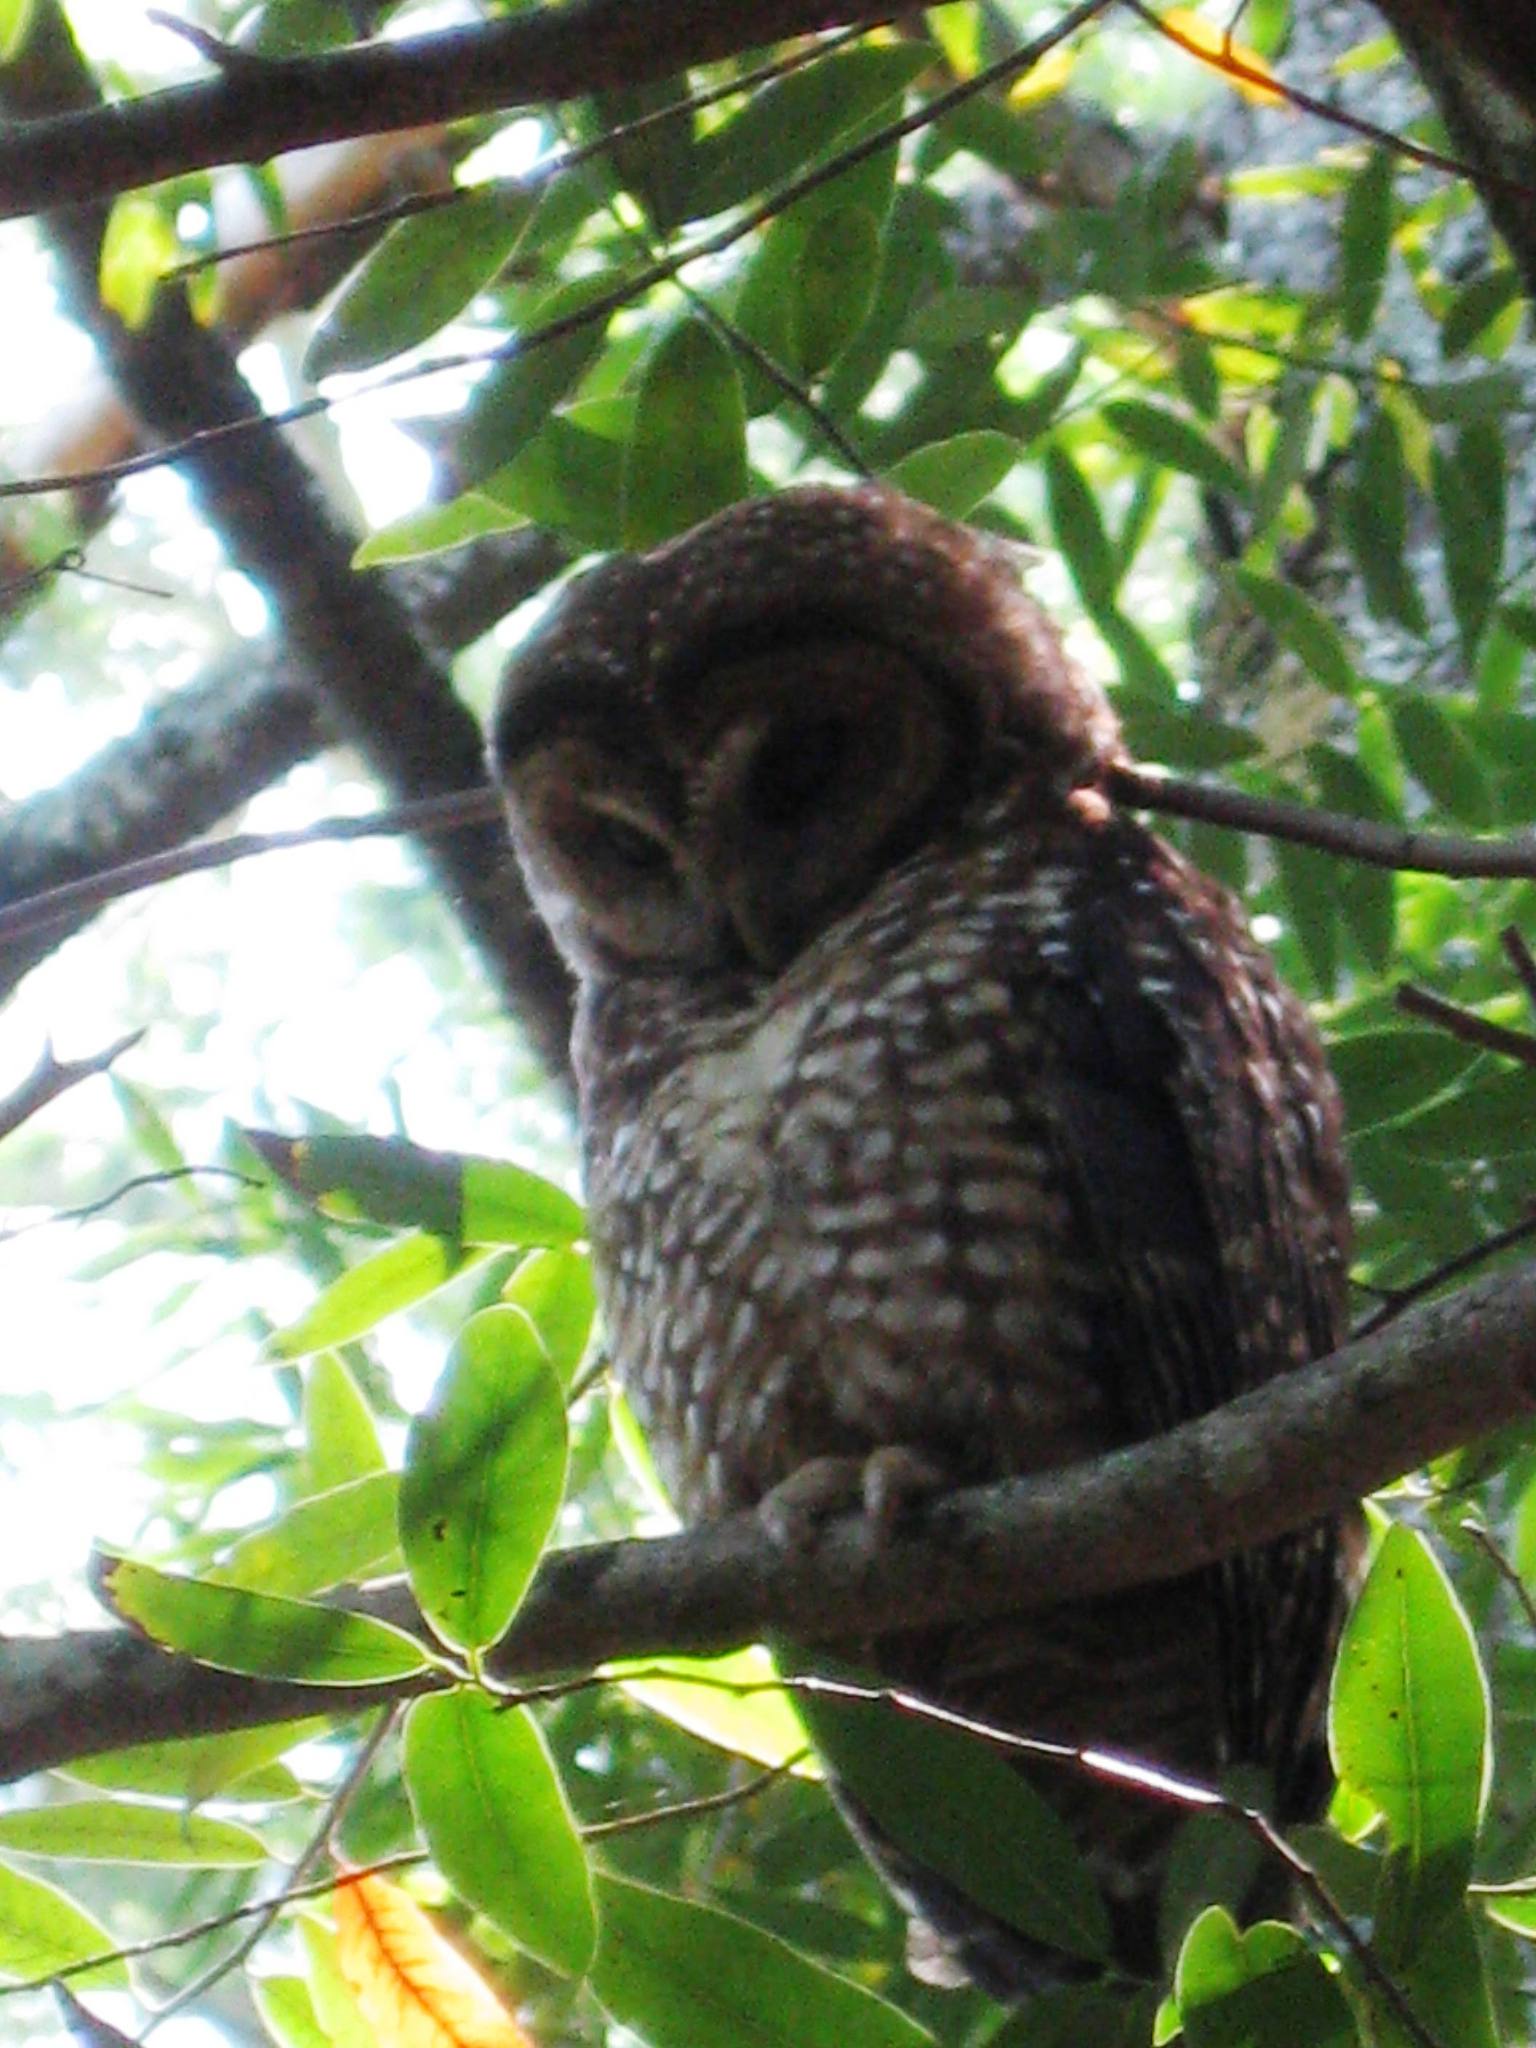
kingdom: Animalia
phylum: Chordata
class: Aves
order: Strigiformes
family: Strigidae
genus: Strix
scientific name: Strix occidentalis
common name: Spotted owl
